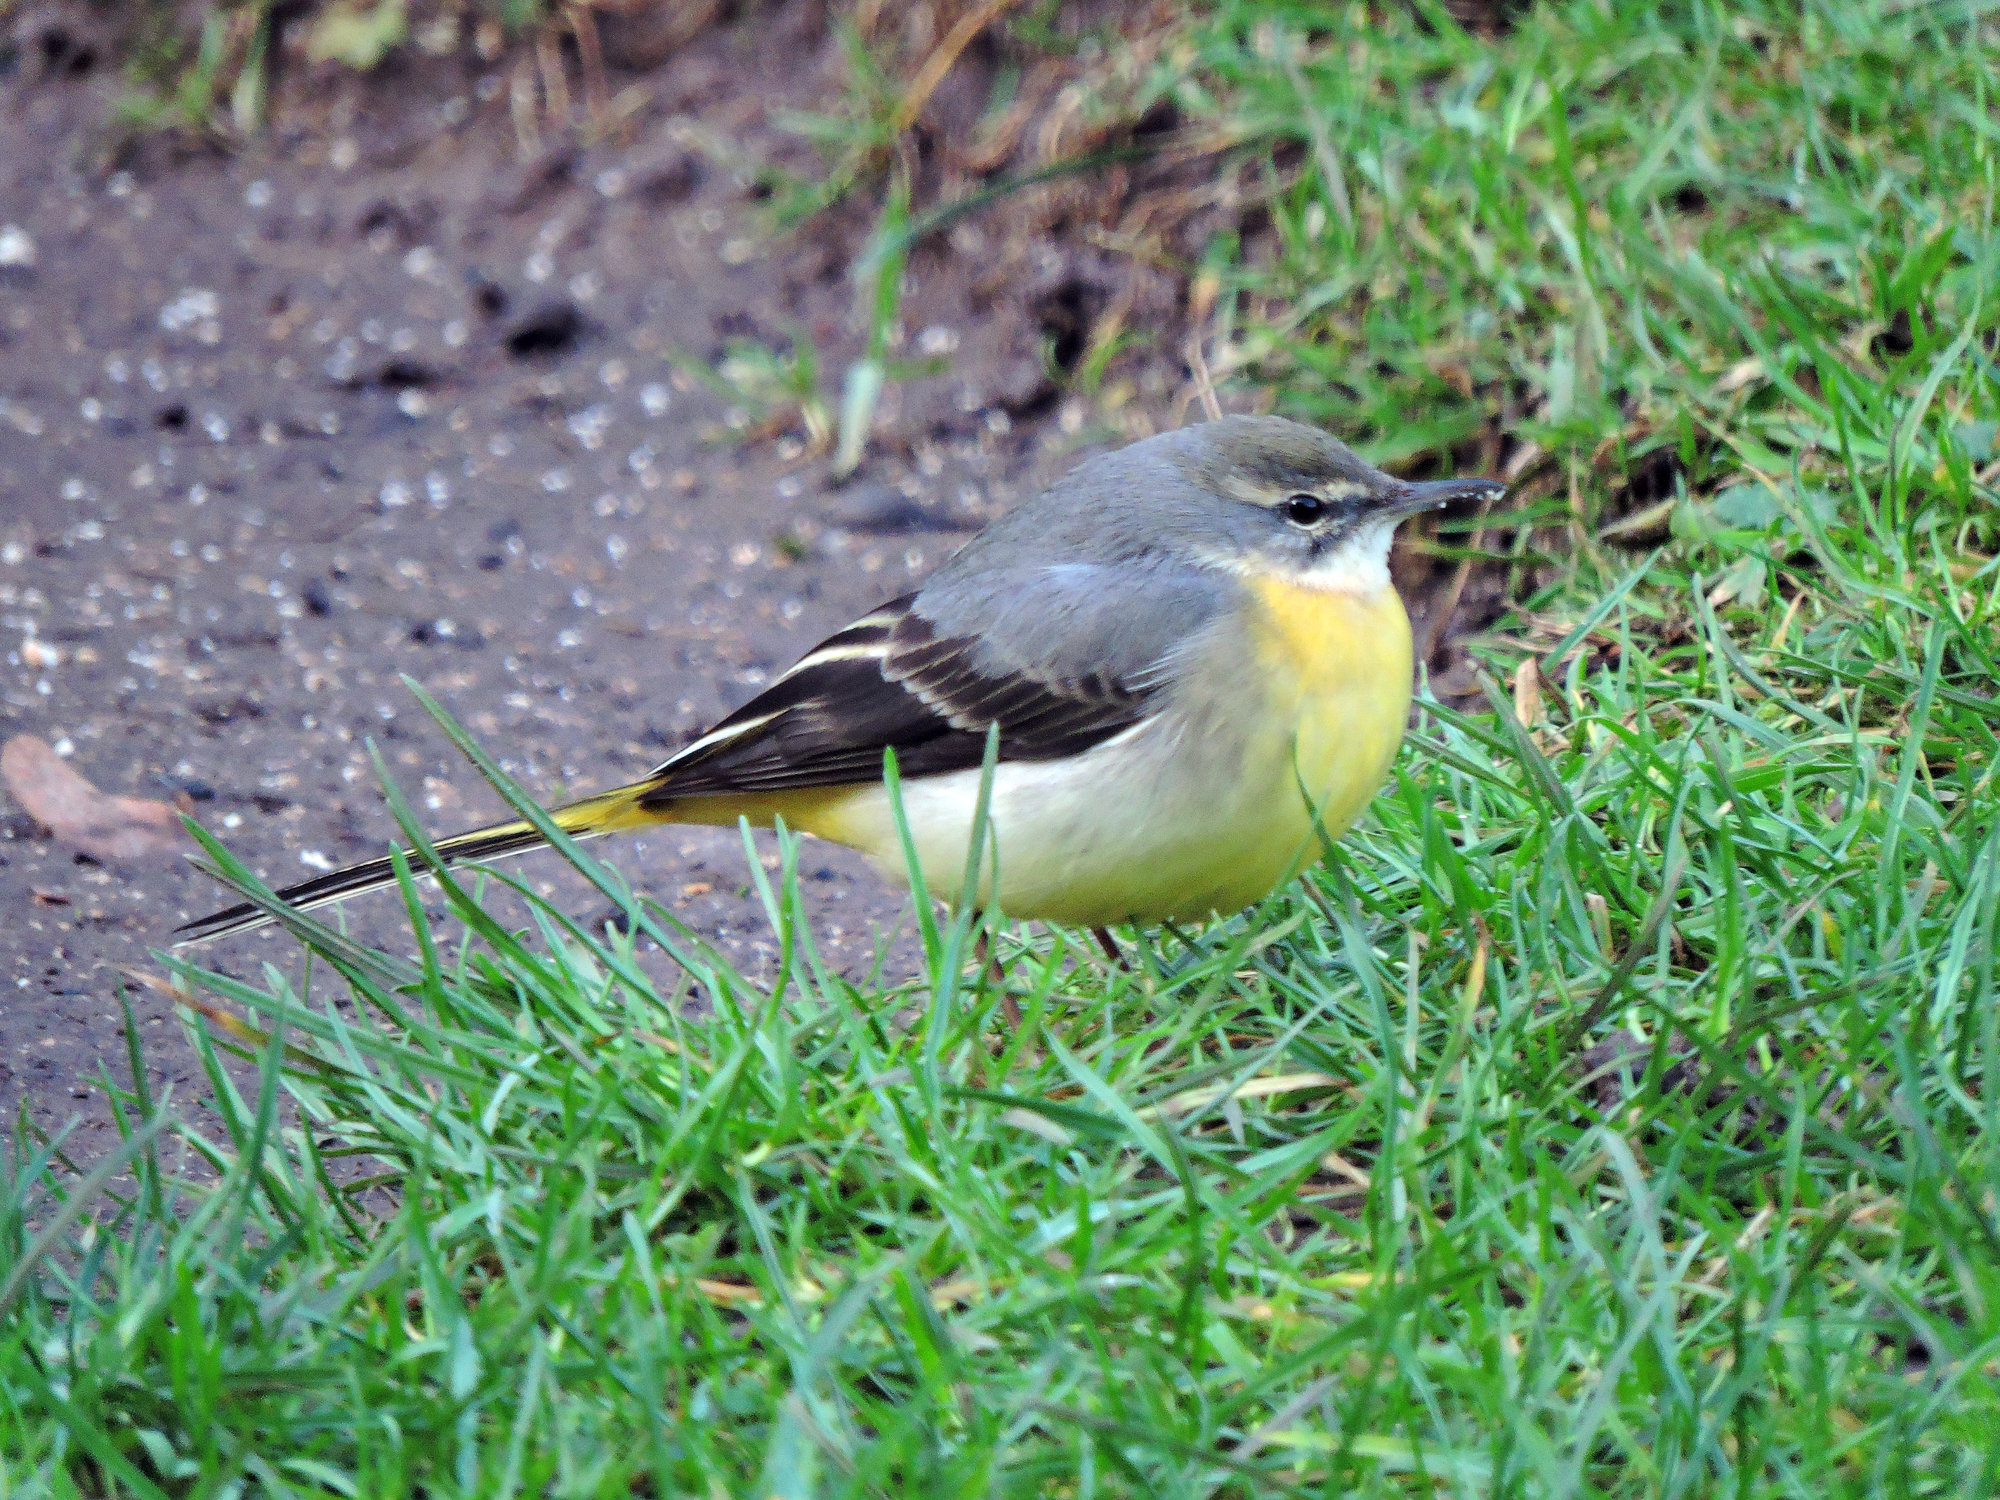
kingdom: Animalia
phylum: Chordata
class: Aves
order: Passeriformes
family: Motacillidae
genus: Motacilla
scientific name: Motacilla cinerea
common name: Grey wagtail
